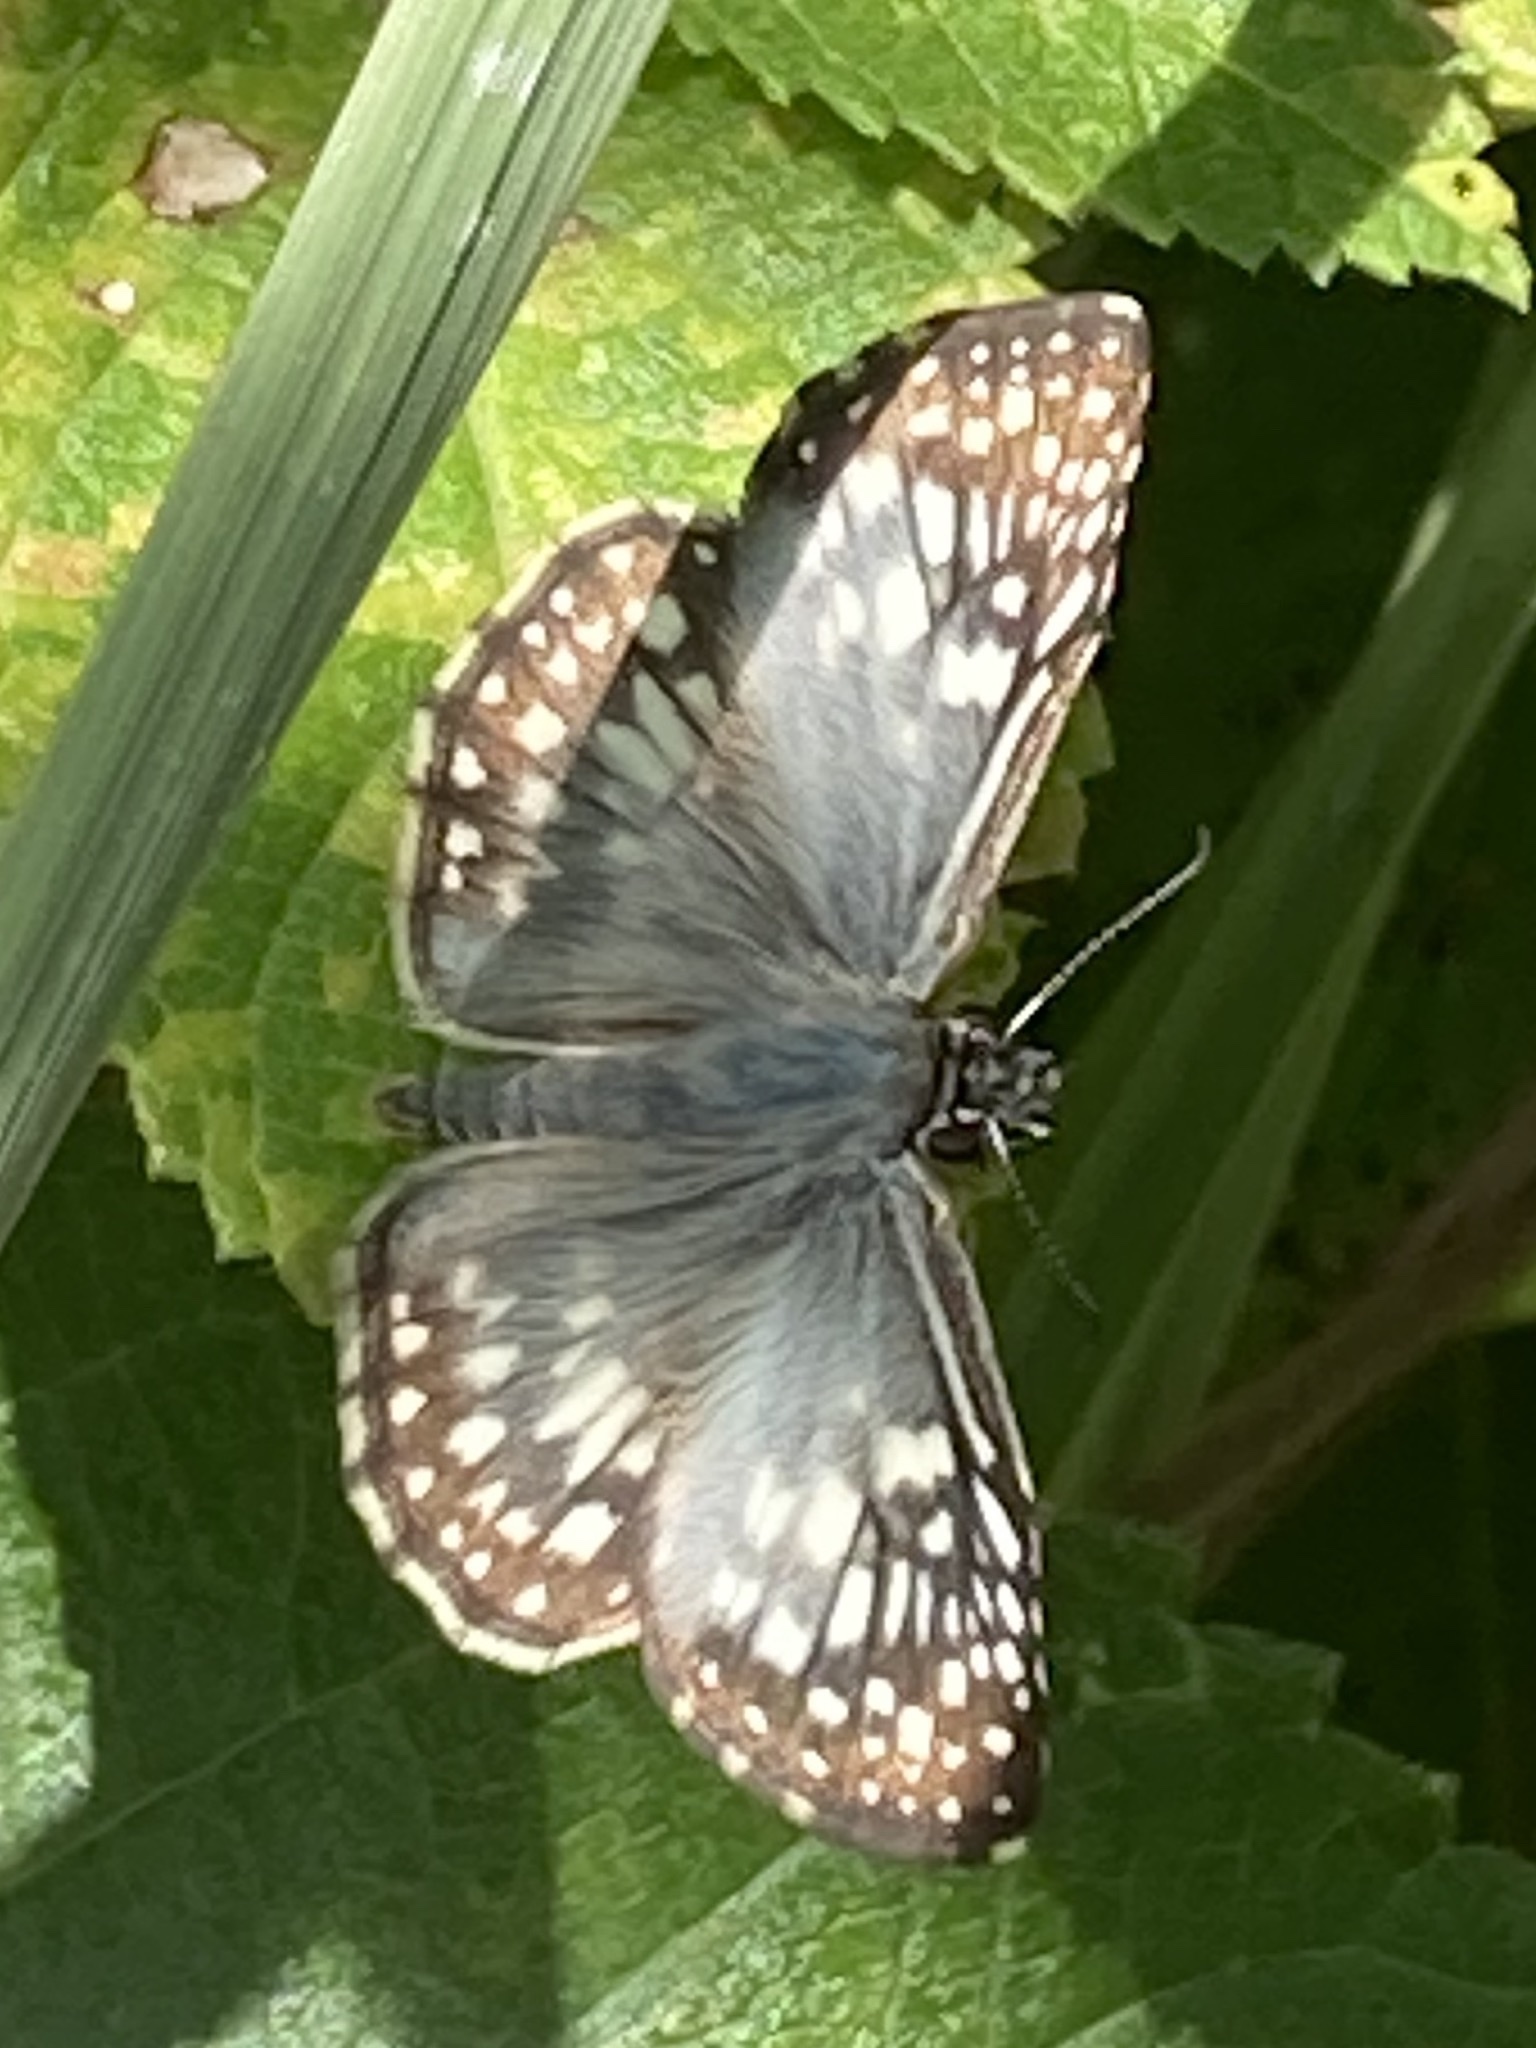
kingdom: Animalia
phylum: Arthropoda
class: Insecta
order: Lepidoptera
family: Hesperiidae
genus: Pyrgus
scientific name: Pyrgus oileus
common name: Tropical checkered-skipper
